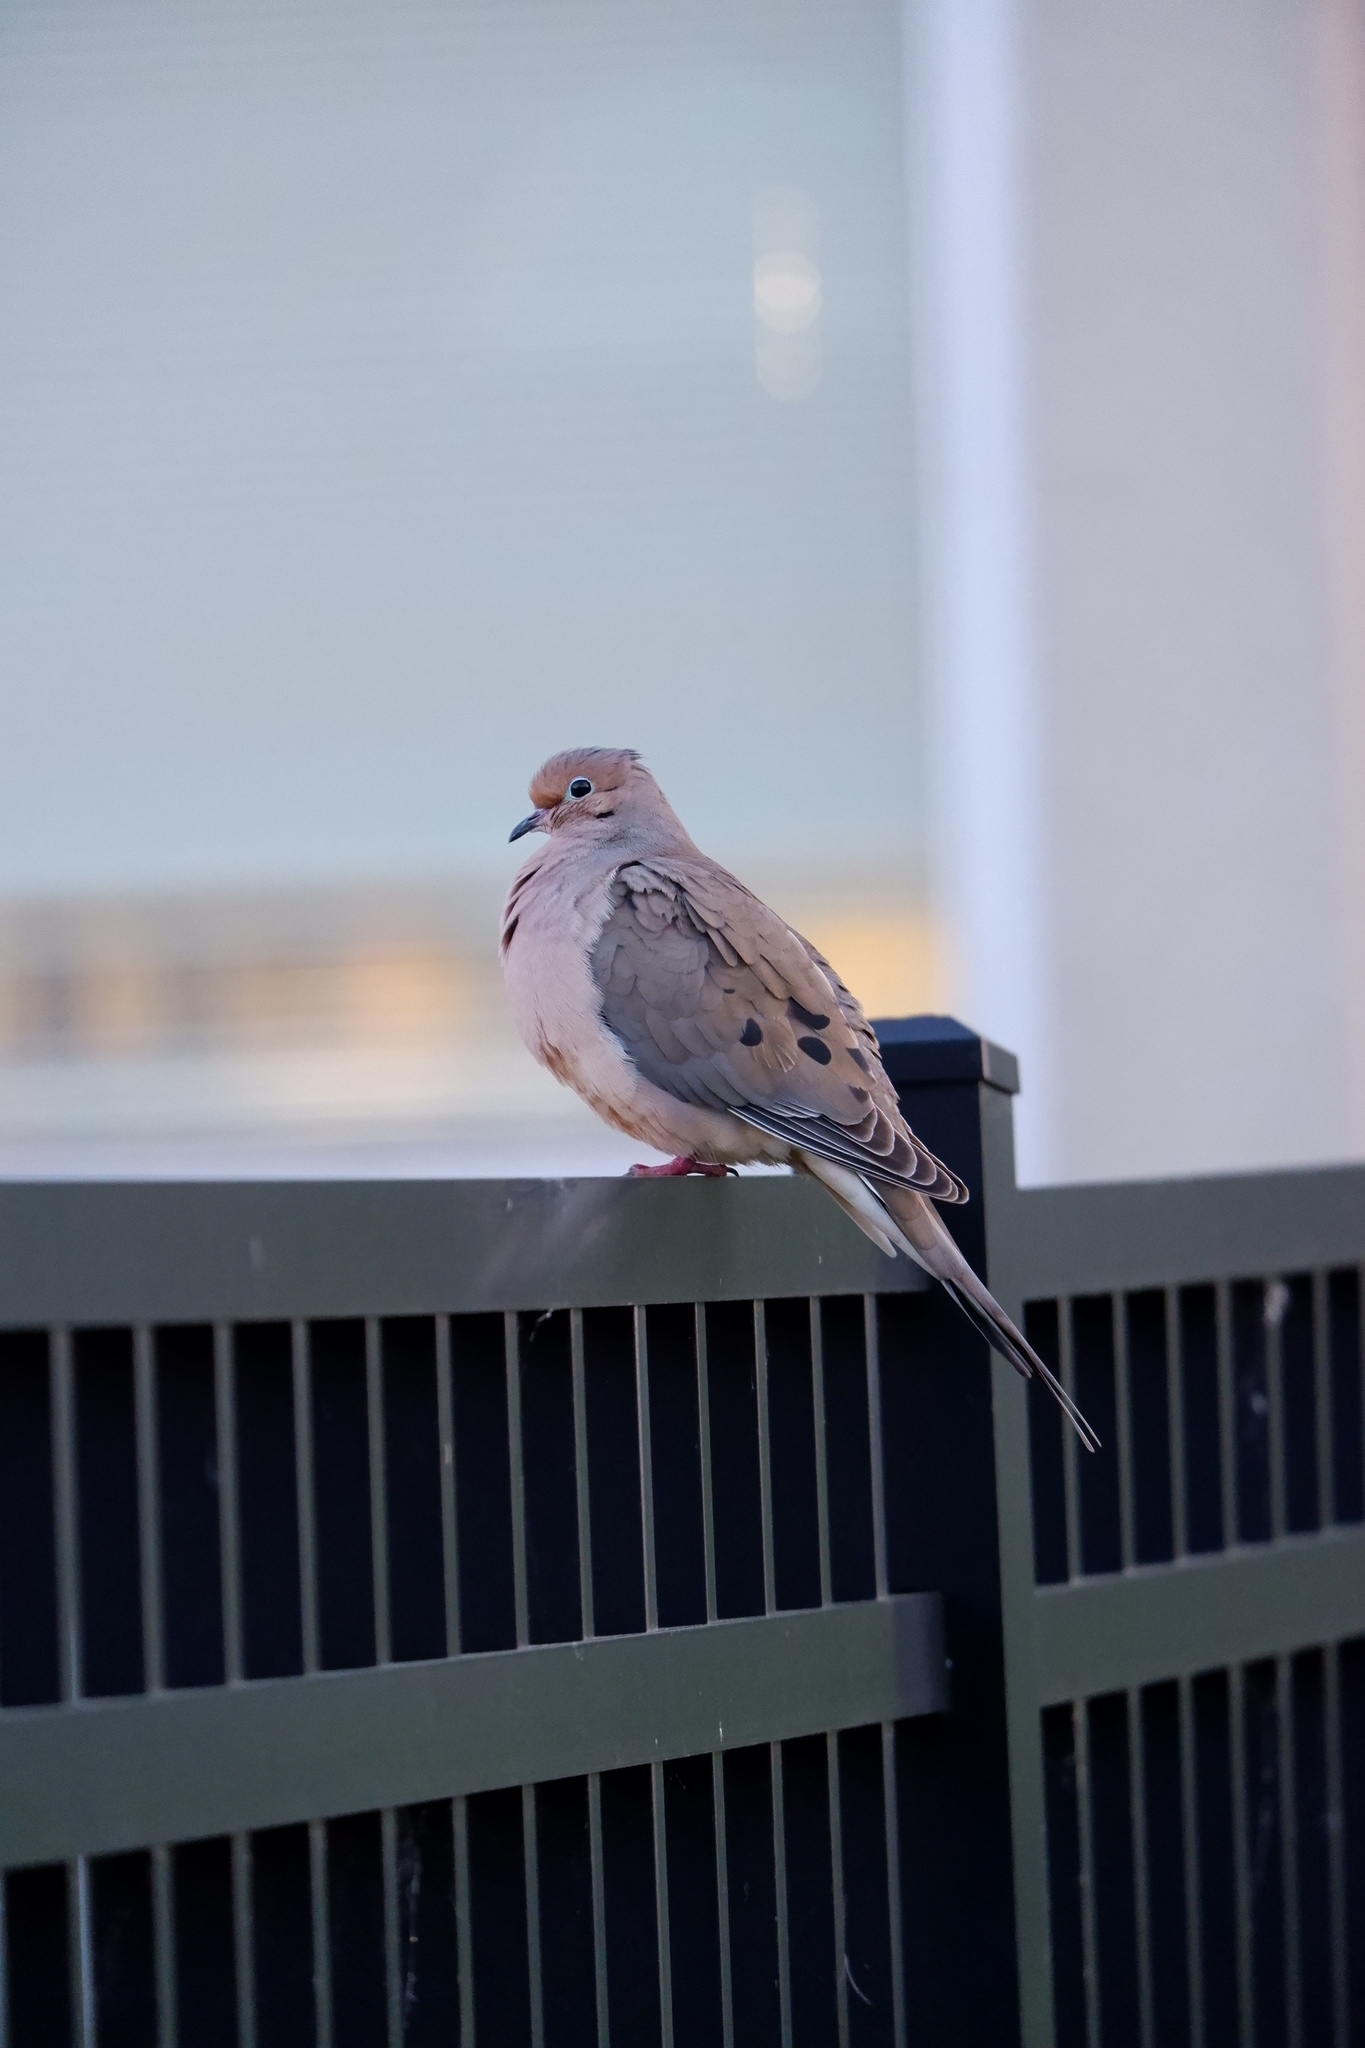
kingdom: Animalia
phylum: Chordata
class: Aves
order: Columbiformes
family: Columbidae
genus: Zenaida
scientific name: Zenaida macroura
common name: Mourning dove
